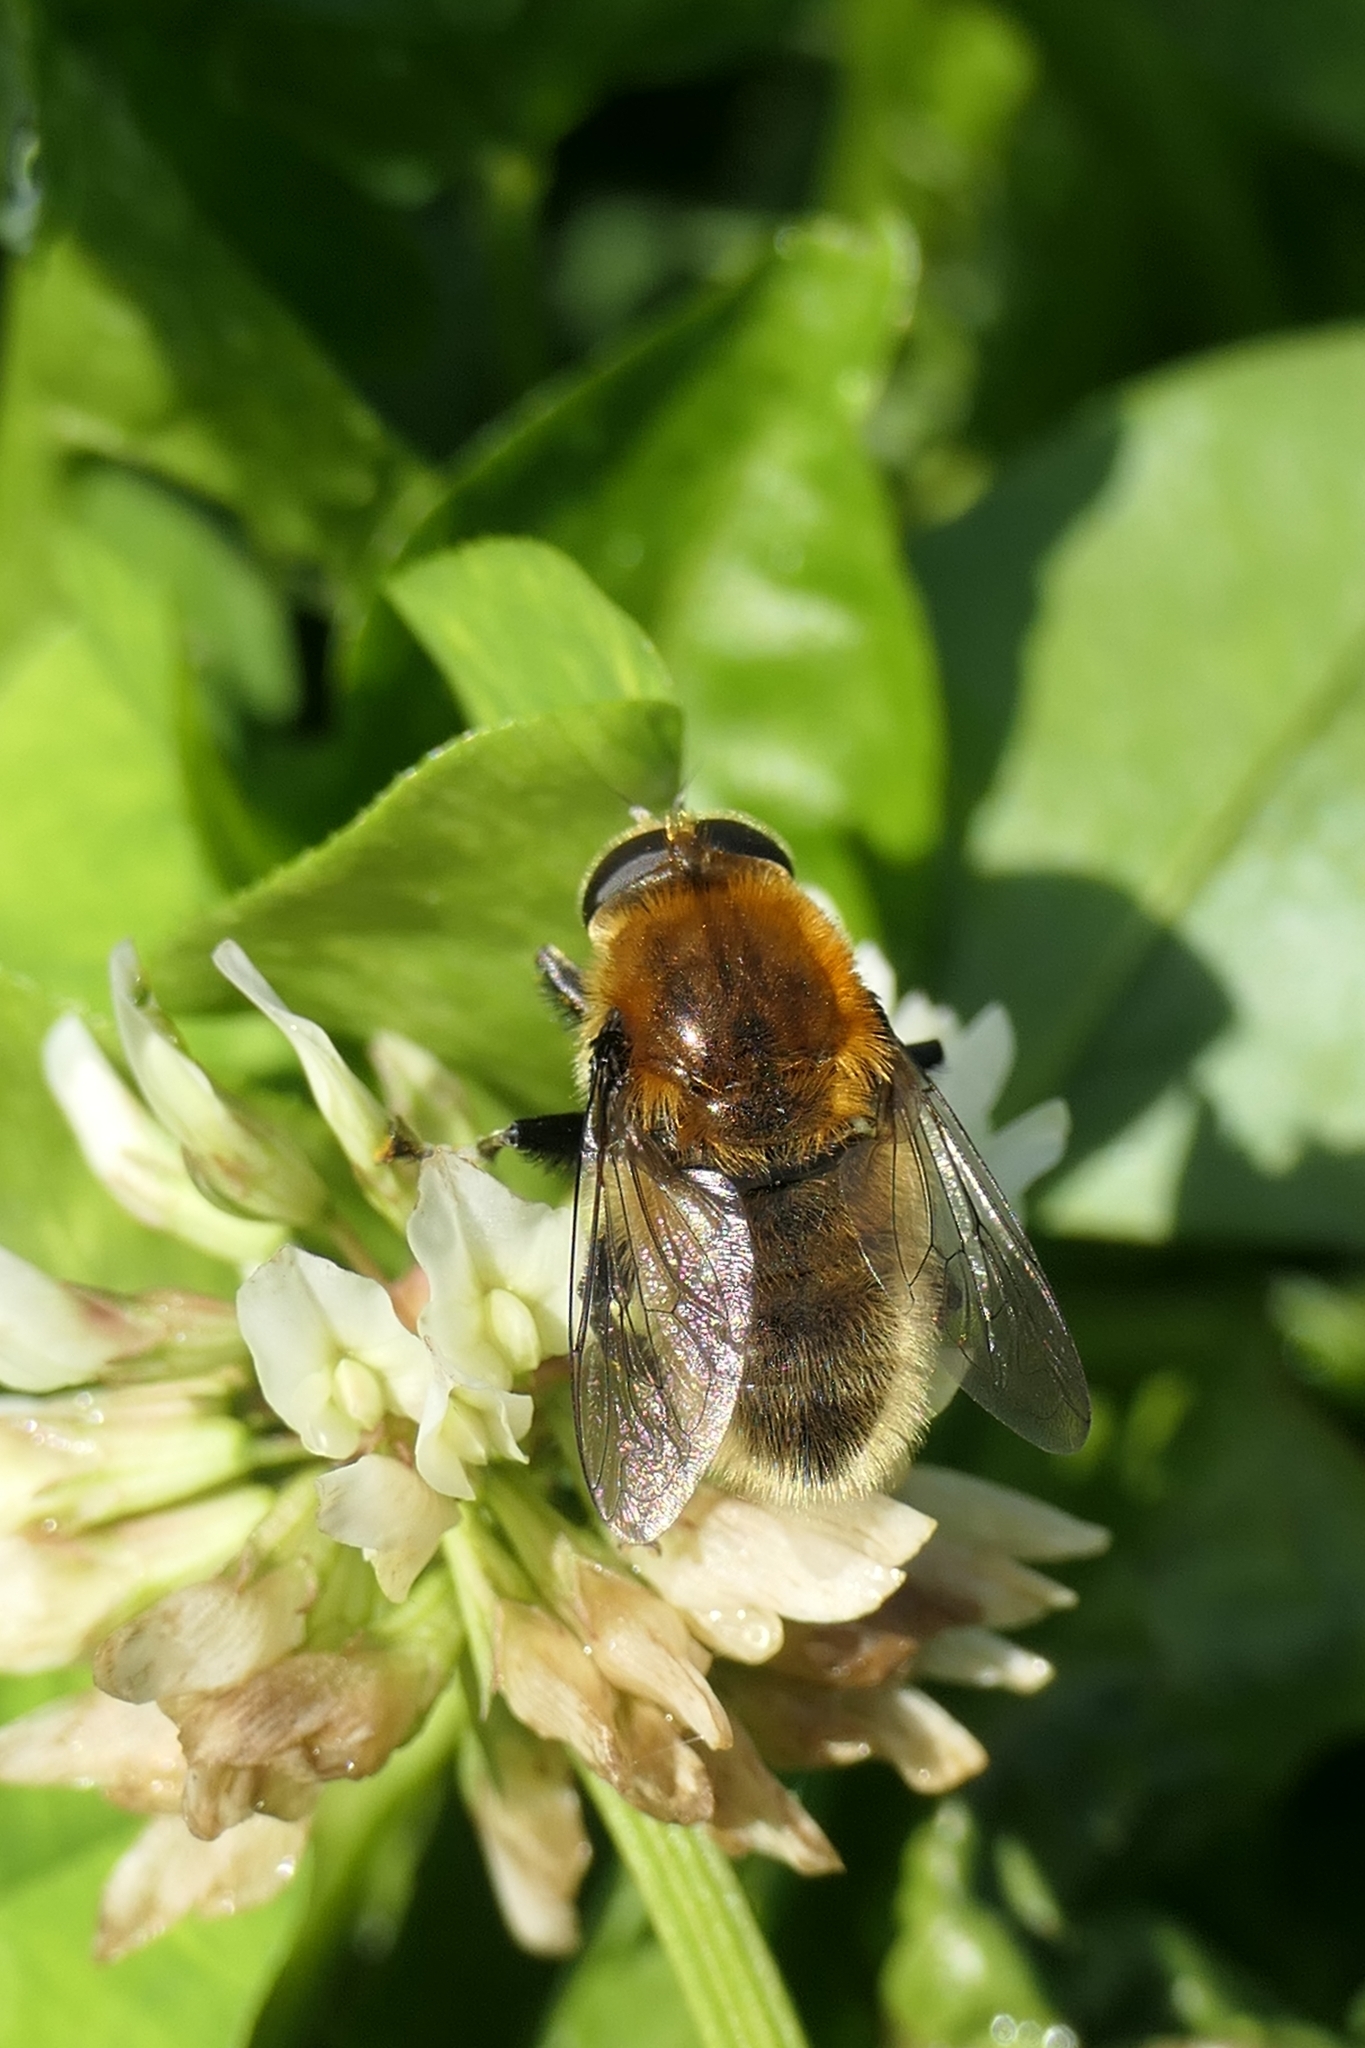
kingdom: Animalia
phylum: Arthropoda
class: Insecta
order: Diptera
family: Syrphidae
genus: Merodon
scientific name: Merodon equestris
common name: Greater bulb-fly
